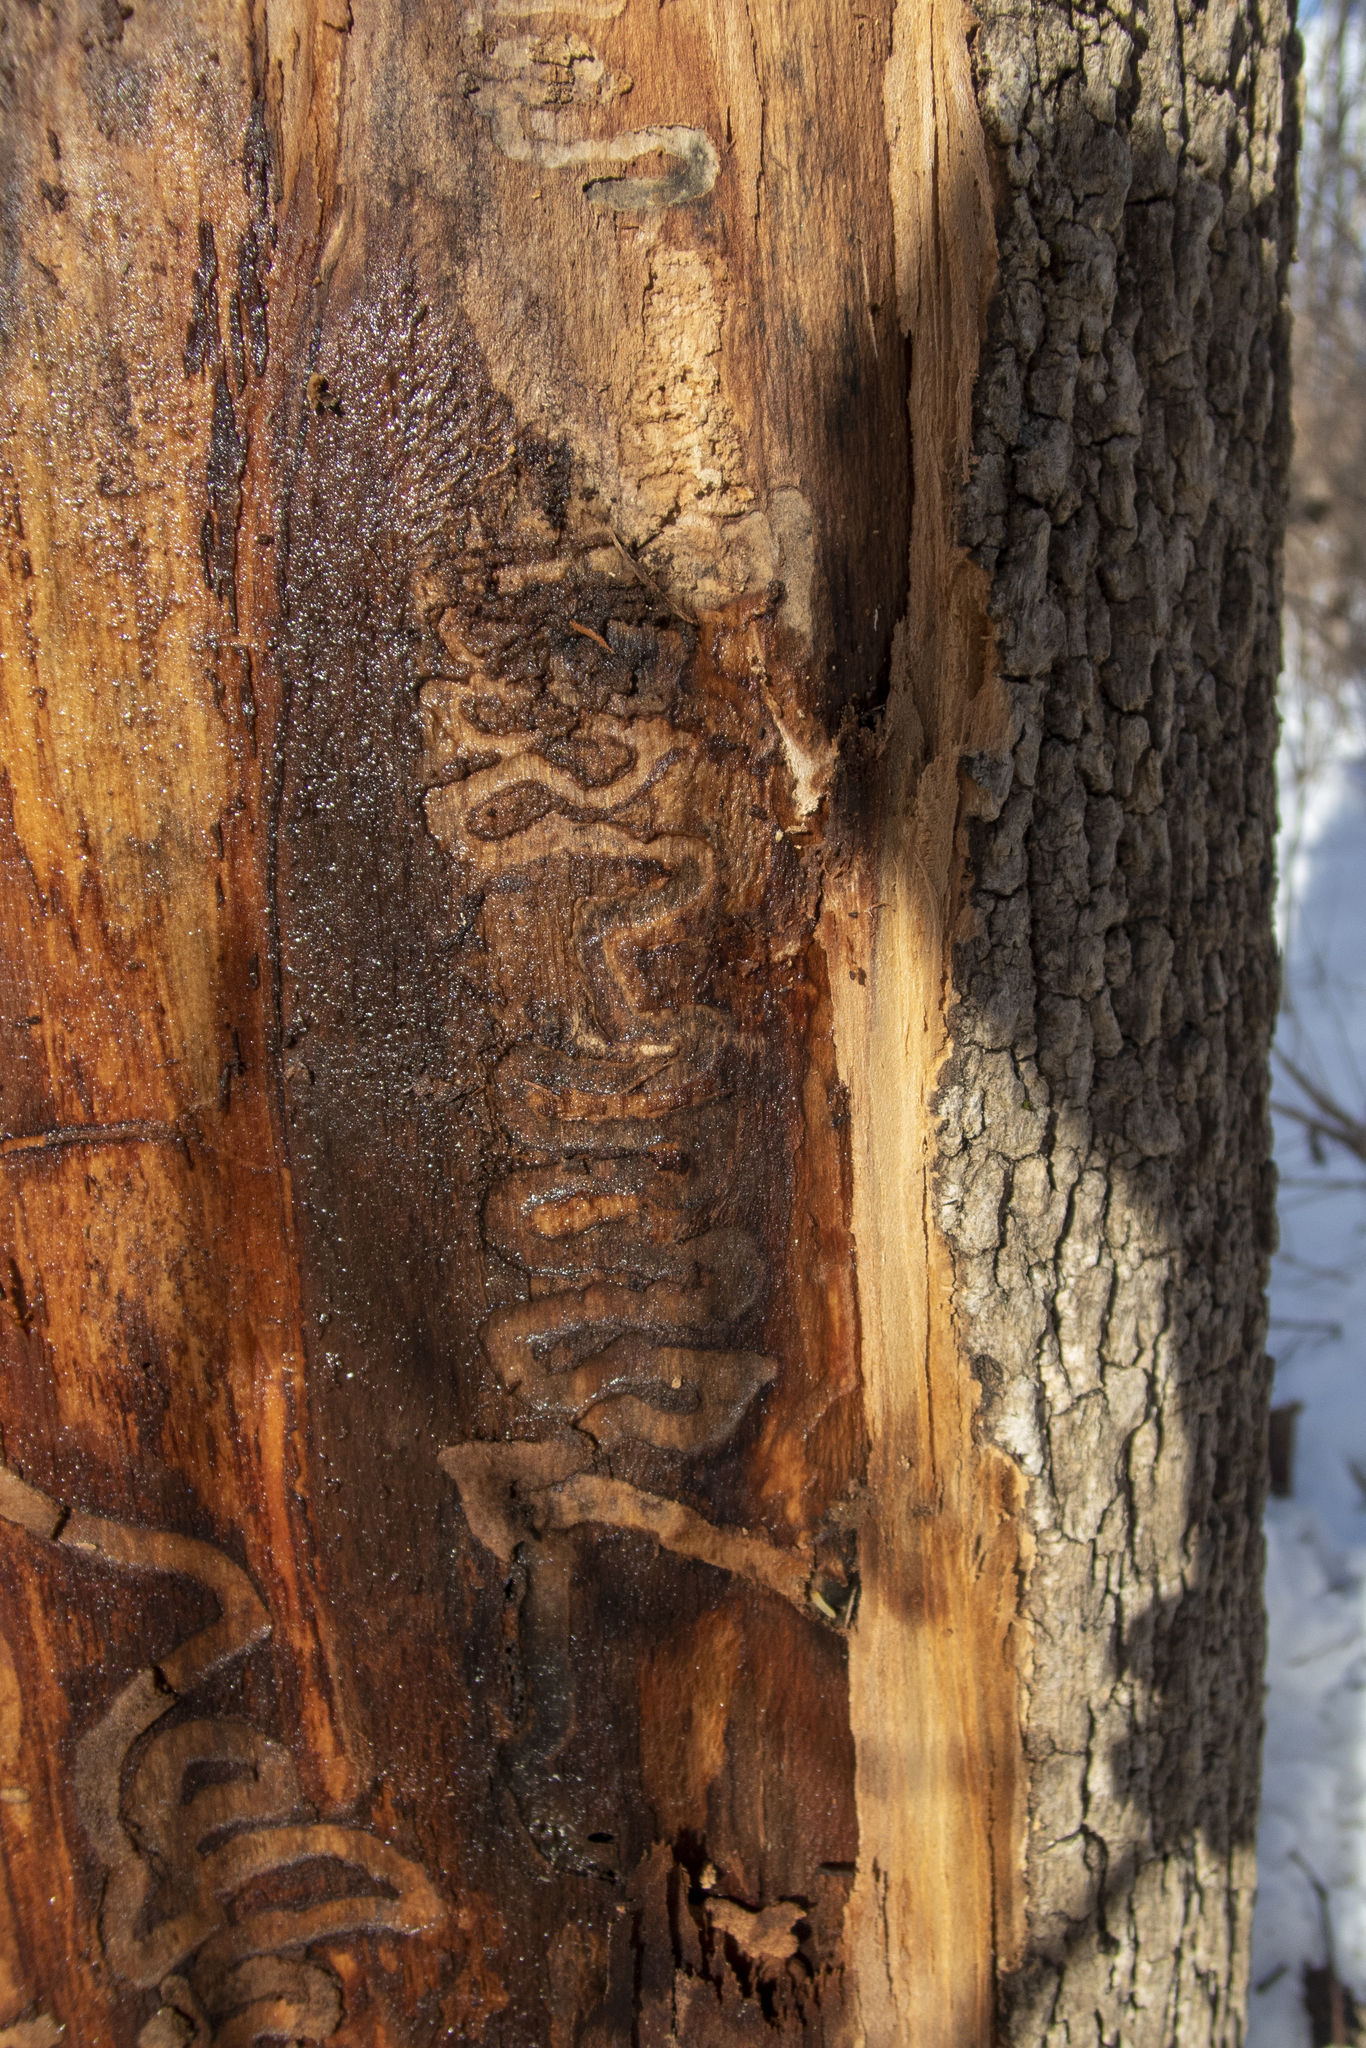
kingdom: Animalia
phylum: Arthropoda
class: Insecta
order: Coleoptera
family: Buprestidae
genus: Agrilus
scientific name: Agrilus planipennis
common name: Emerald ash borer
